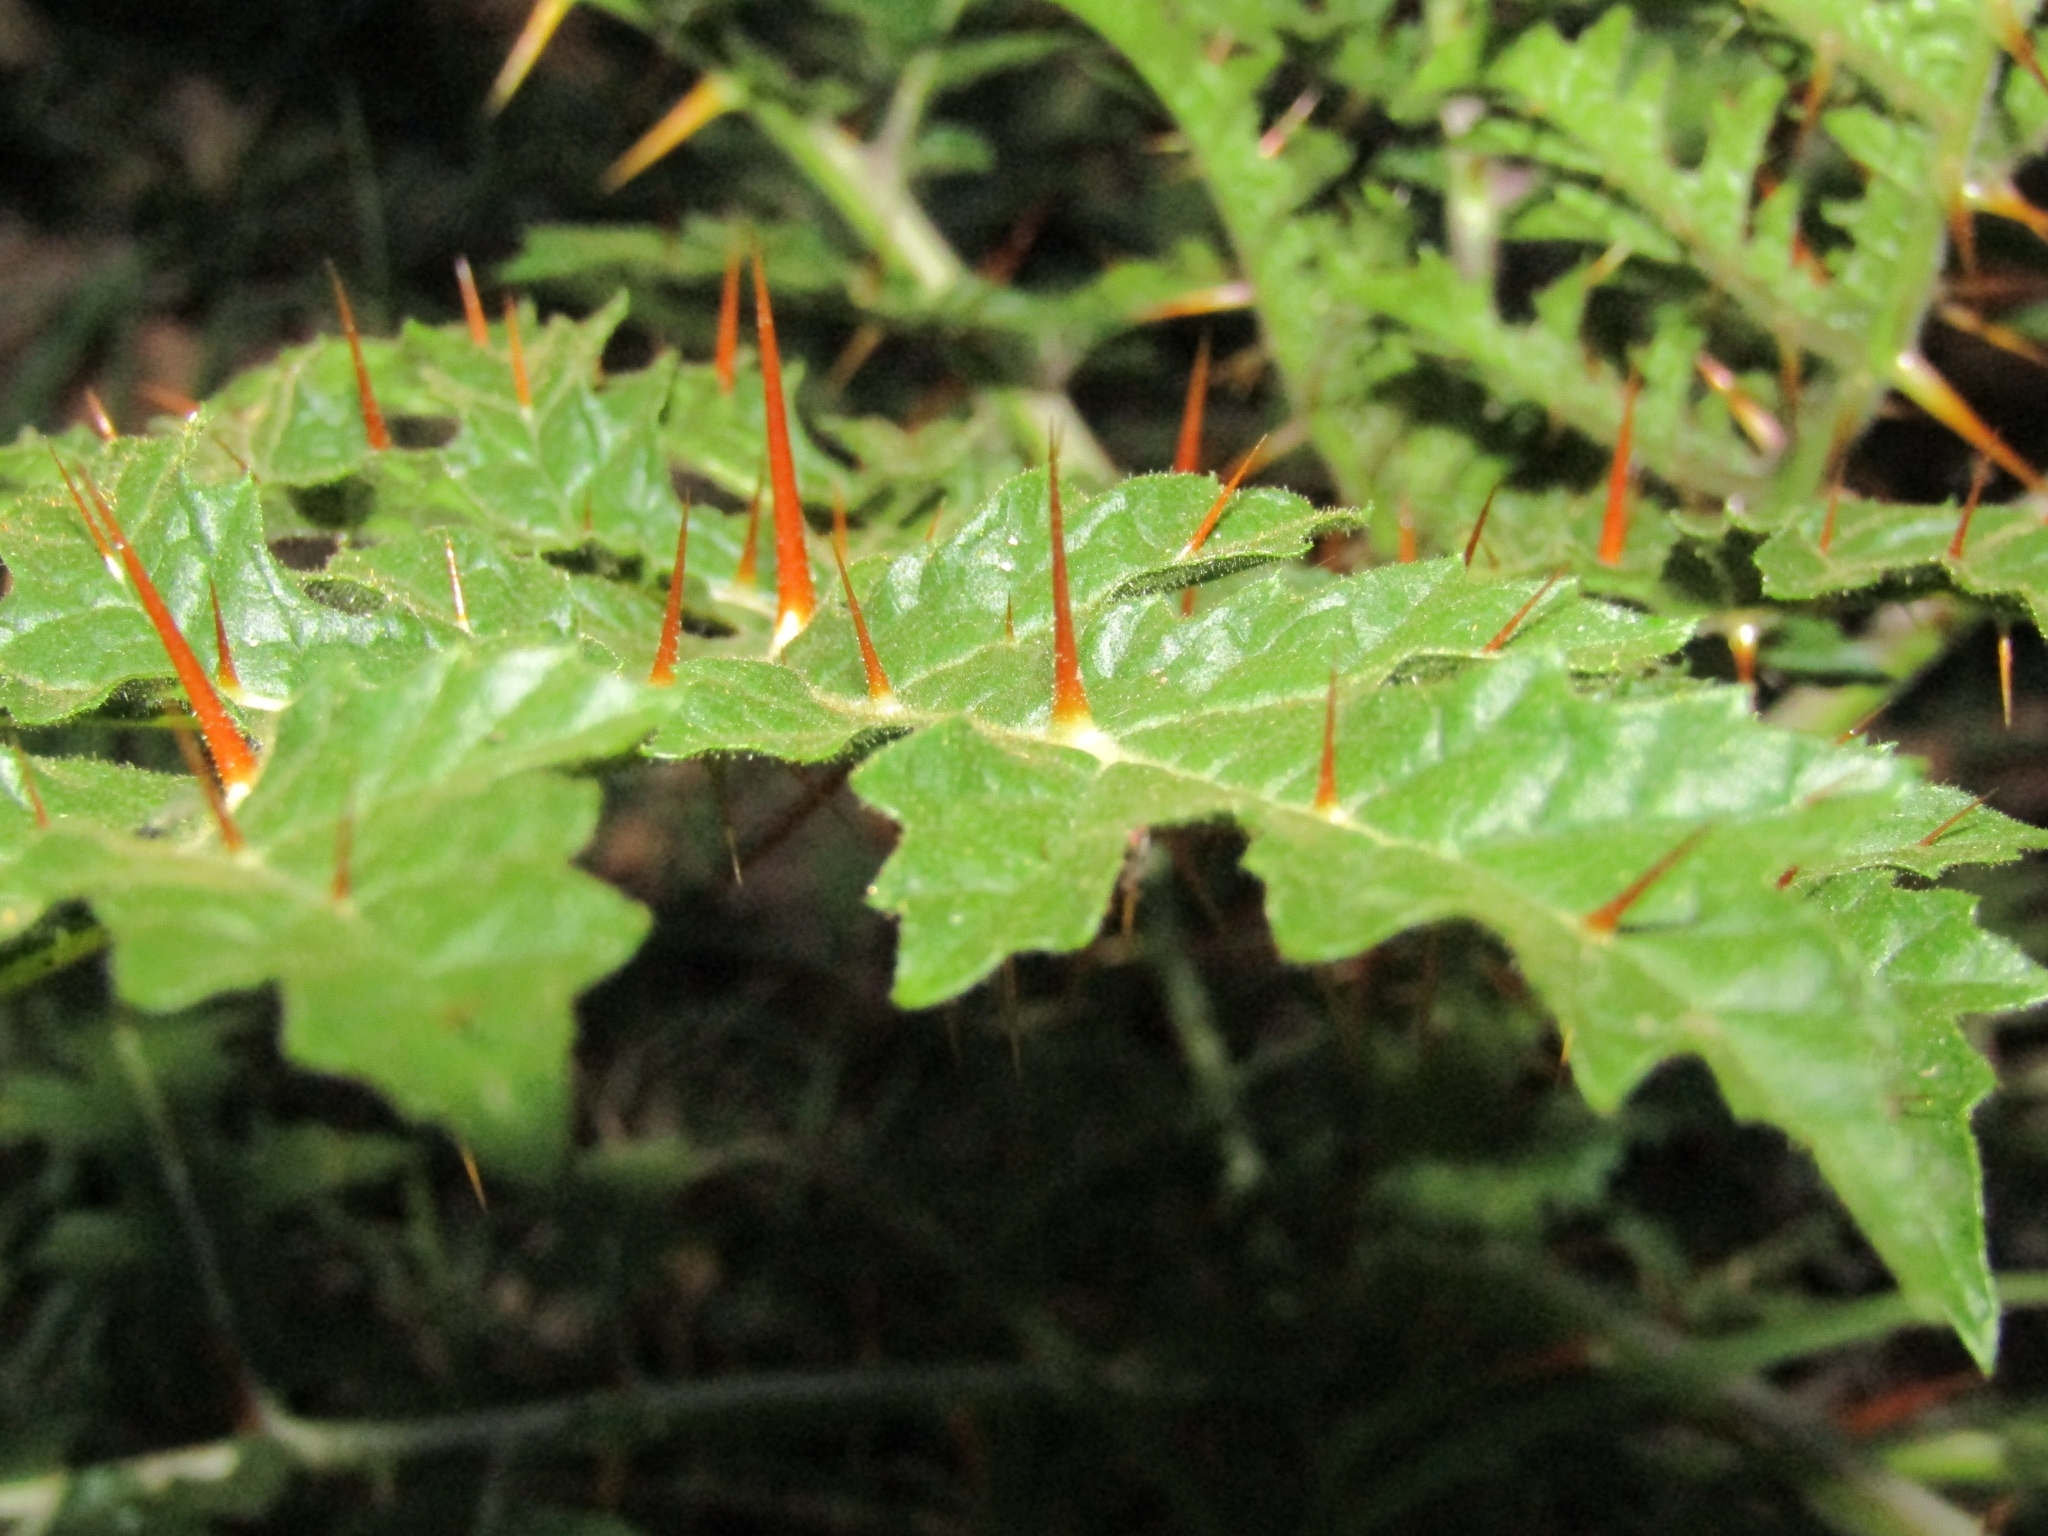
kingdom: Plantae
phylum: Tracheophyta
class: Magnoliopsida
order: Solanales
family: Solanaceae
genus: Solanum
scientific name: Solanum sisymbriifolium
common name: Red buffalo-bur
